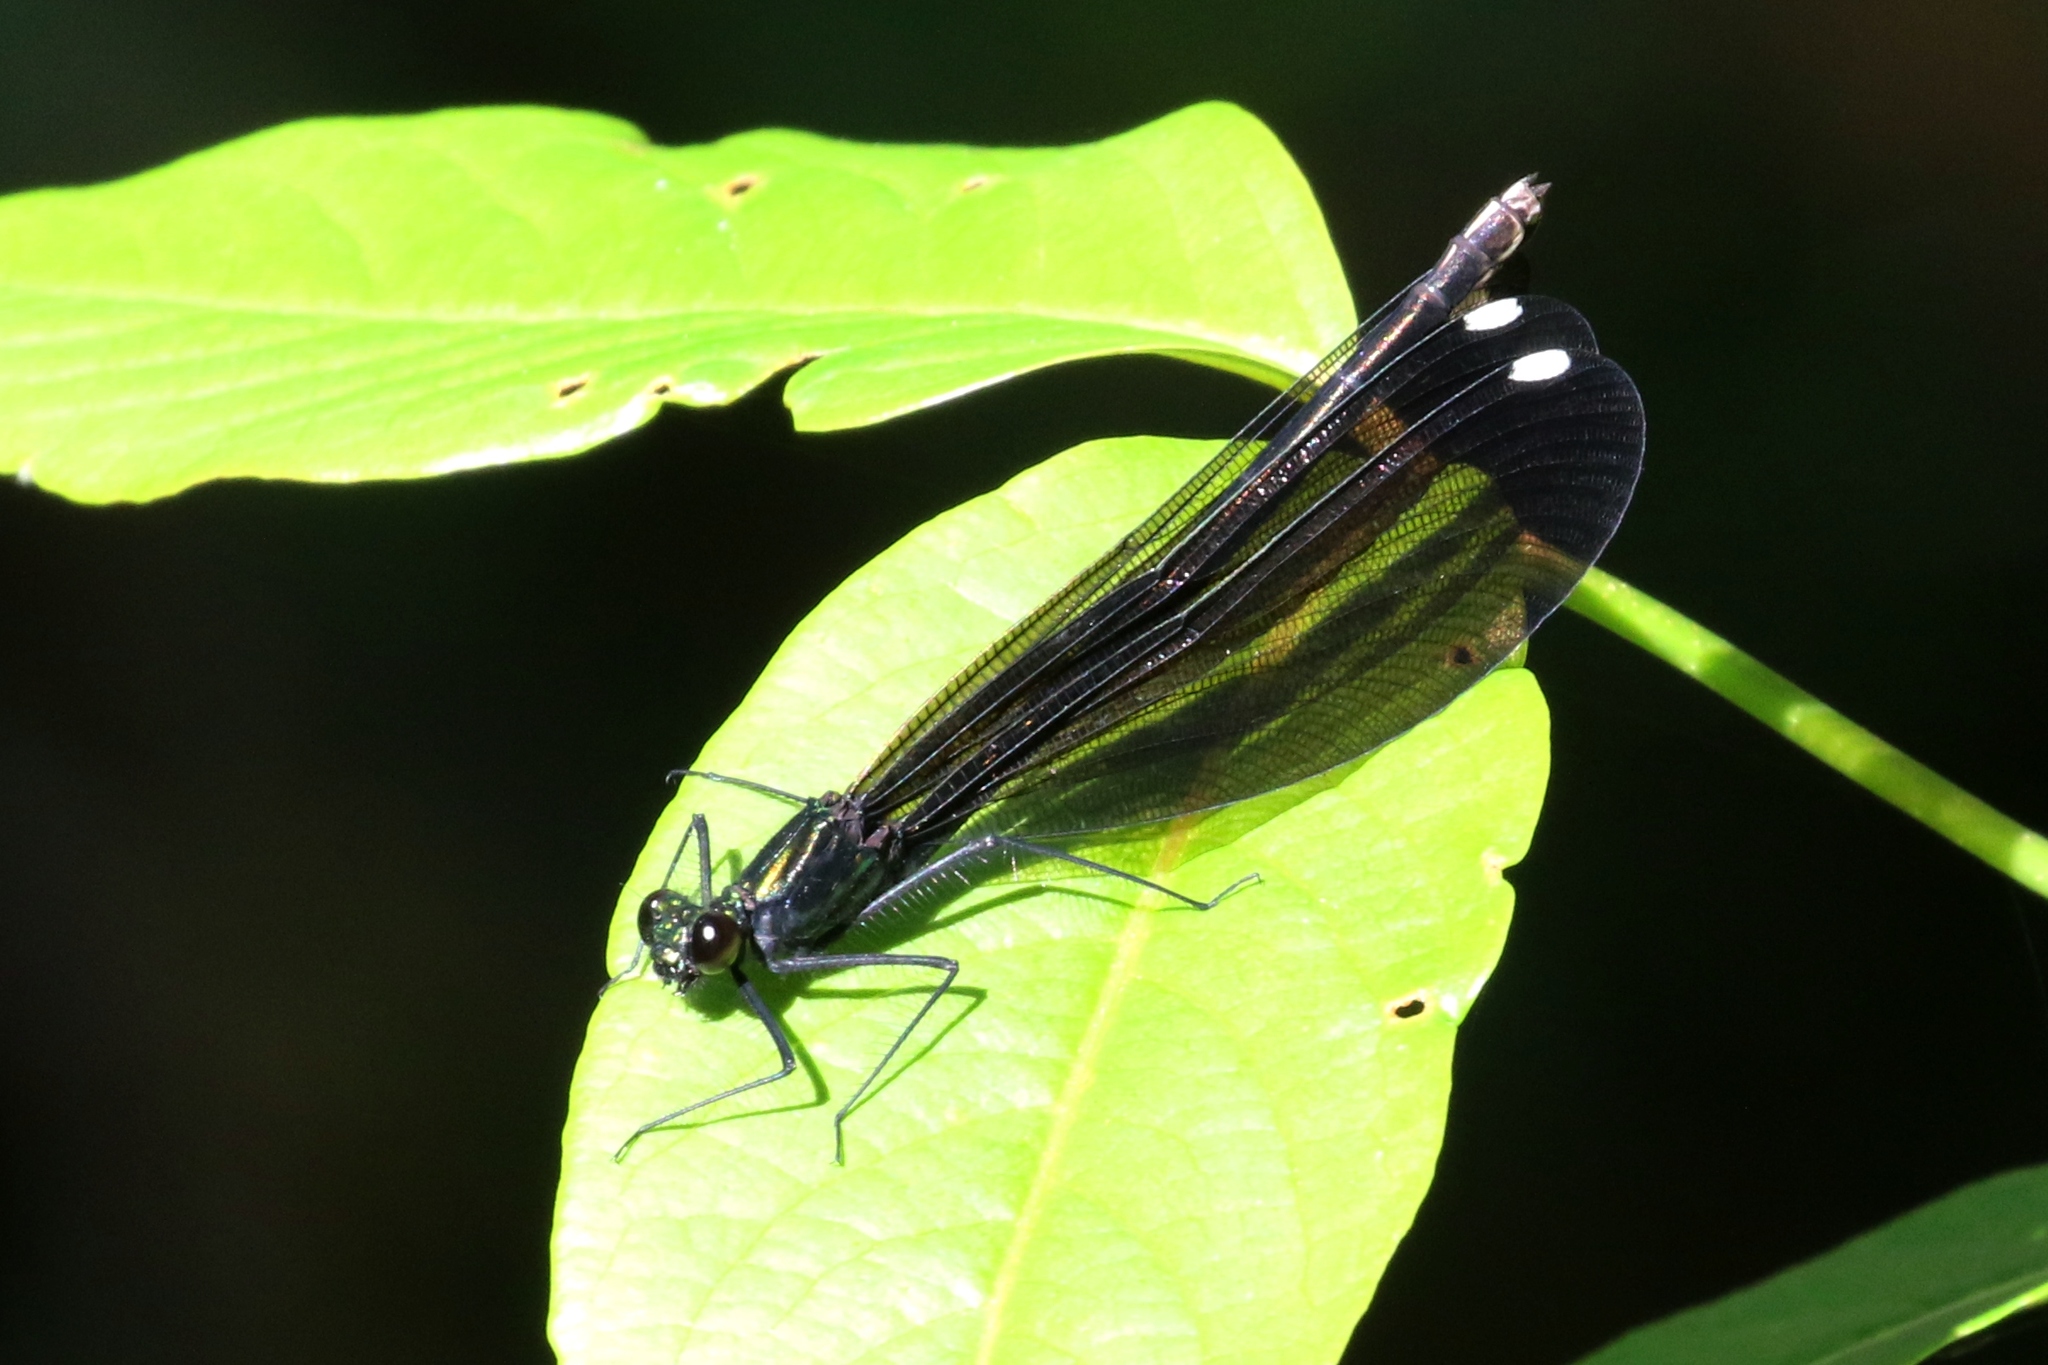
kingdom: Animalia
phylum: Arthropoda
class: Insecta
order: Odonata
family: Calopterygidae
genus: Calopteryx
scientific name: Calopteryx maculata
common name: Ebony jewelwing
